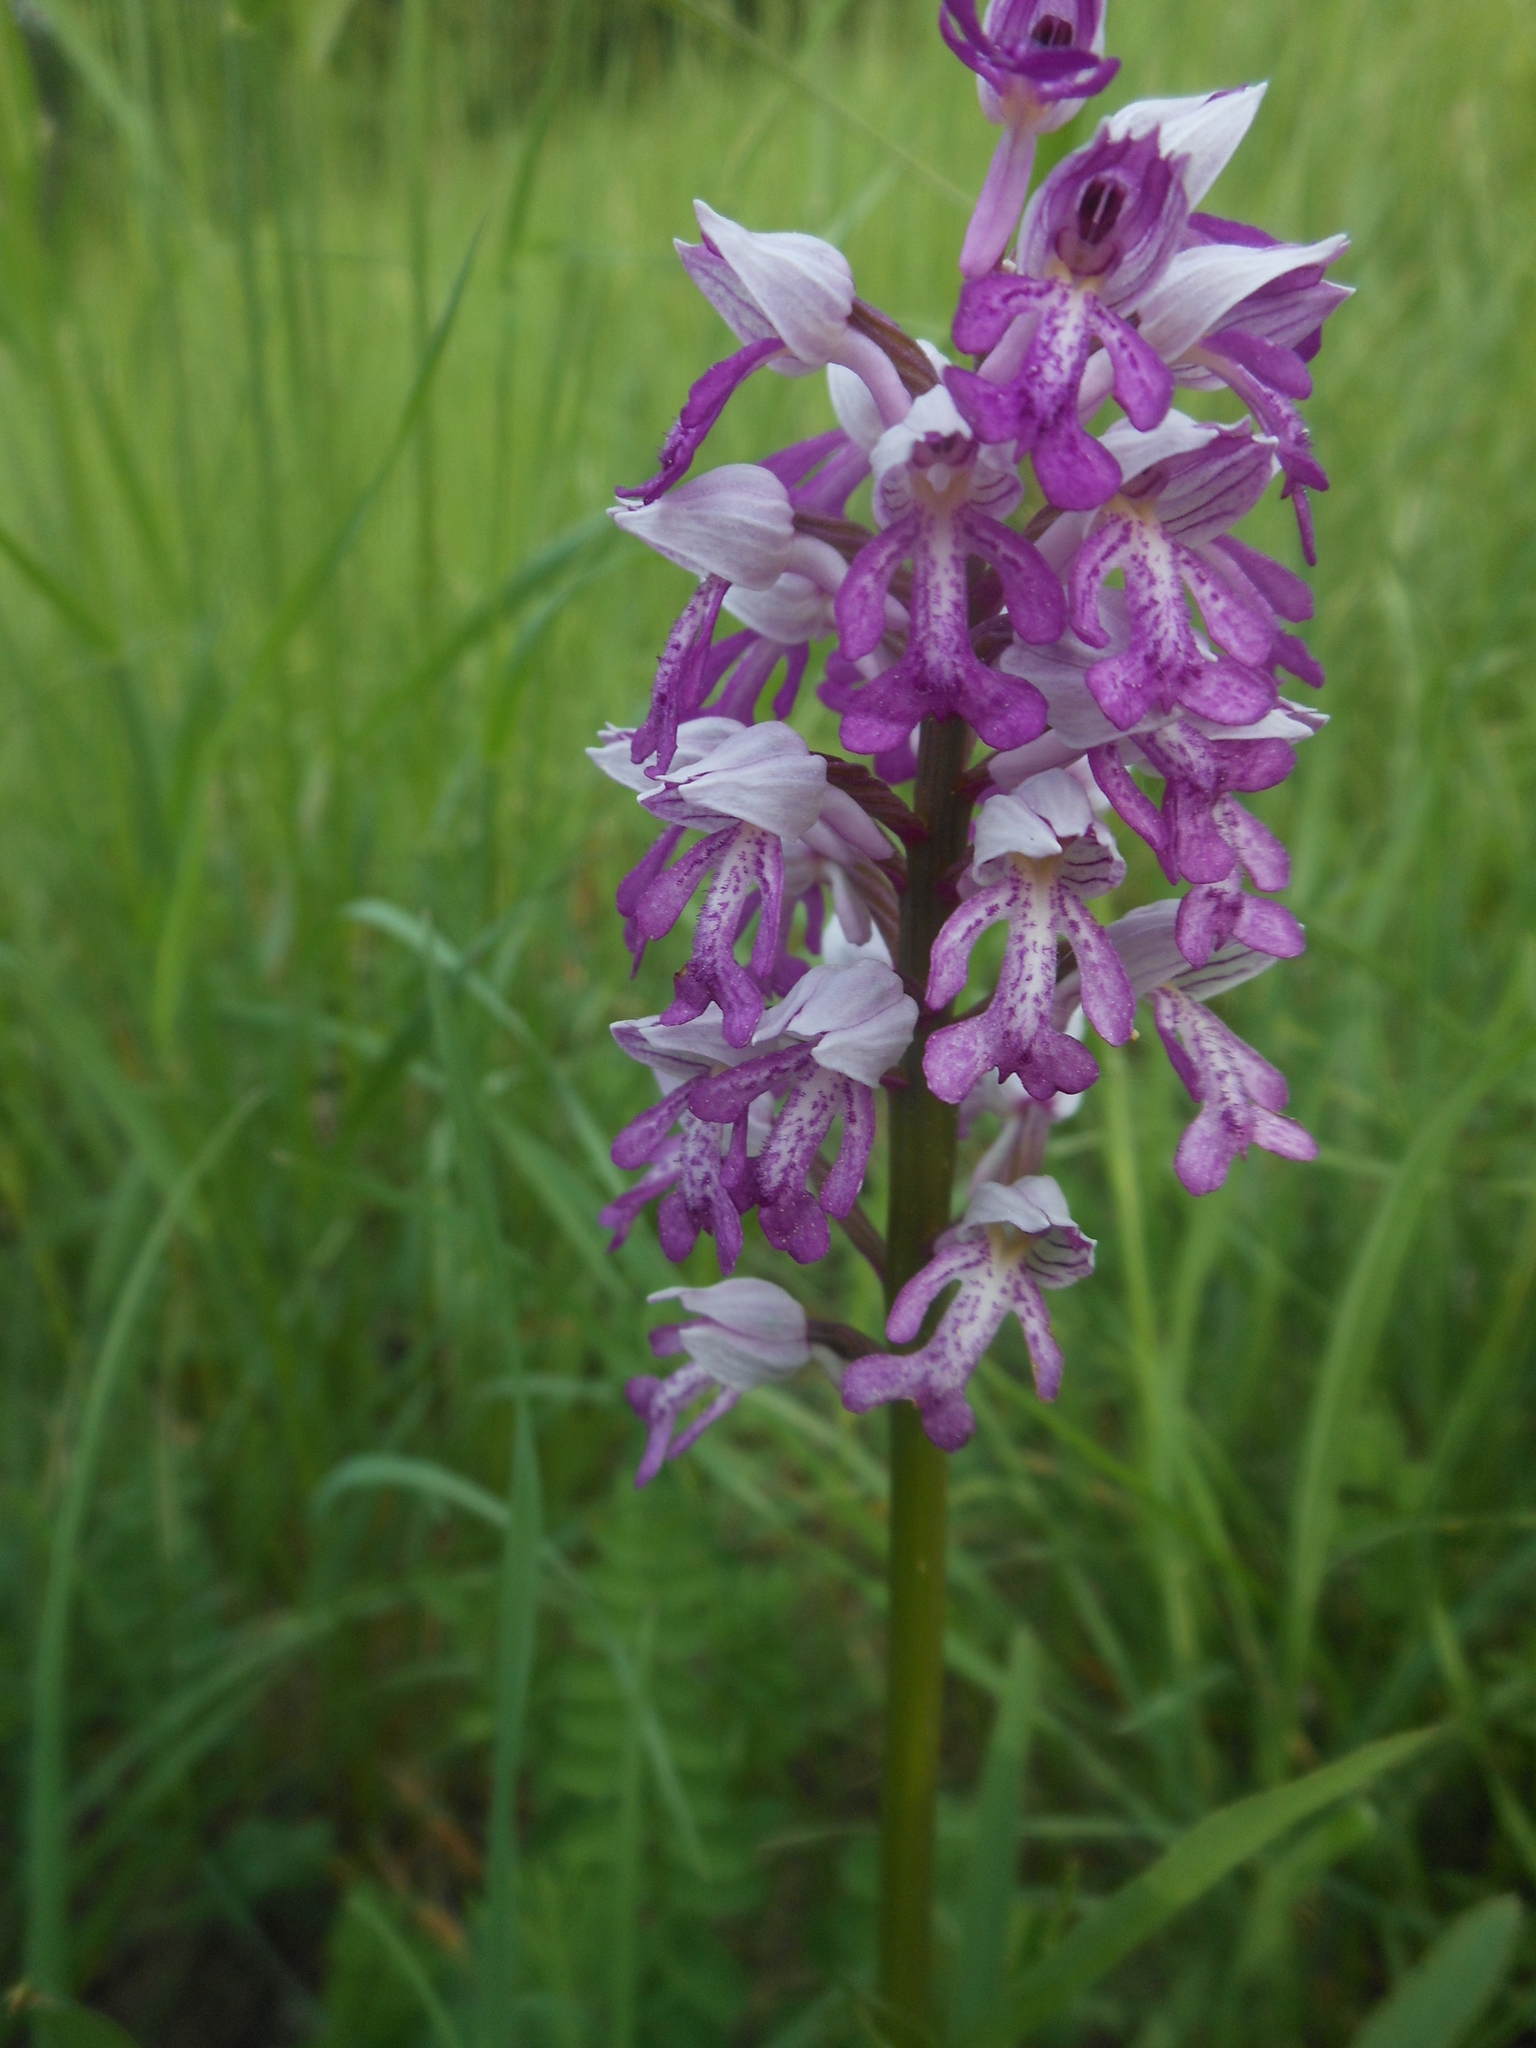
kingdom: Plantae
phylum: Tracheophyta
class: Liliopsida
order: Asparagales
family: Orchidaceae
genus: Orchis
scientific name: Orchis militaris
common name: Military orchid
